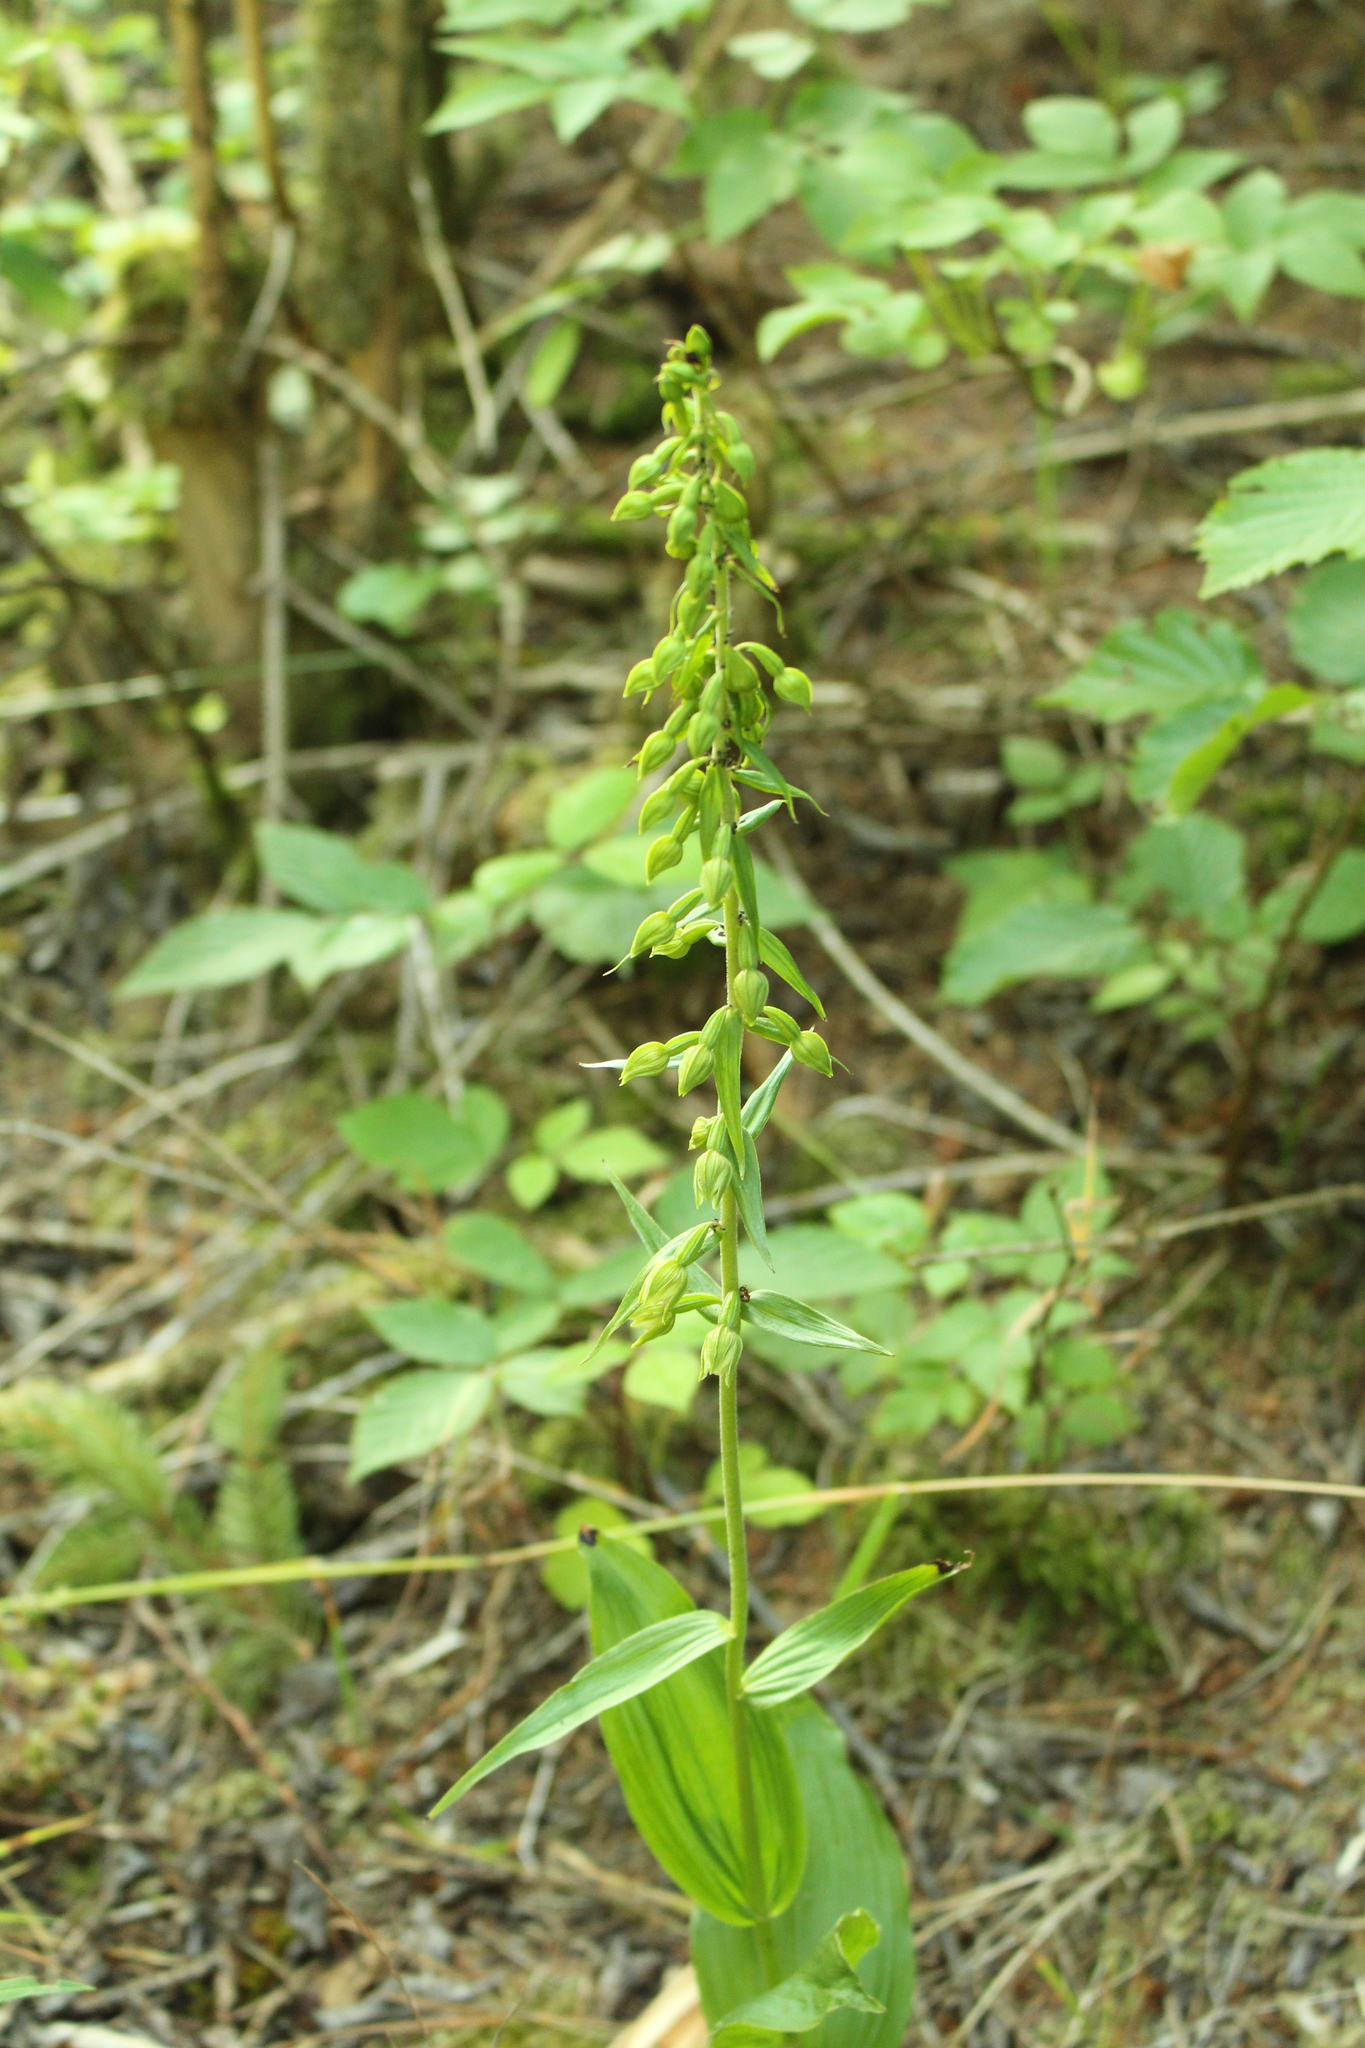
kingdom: Plantae
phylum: Tracheophyta
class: Liliopsida
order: Asparagales
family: Orchidaceae
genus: Epipactis
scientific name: Epipactis helleborine
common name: Broad-leaved helleborine
